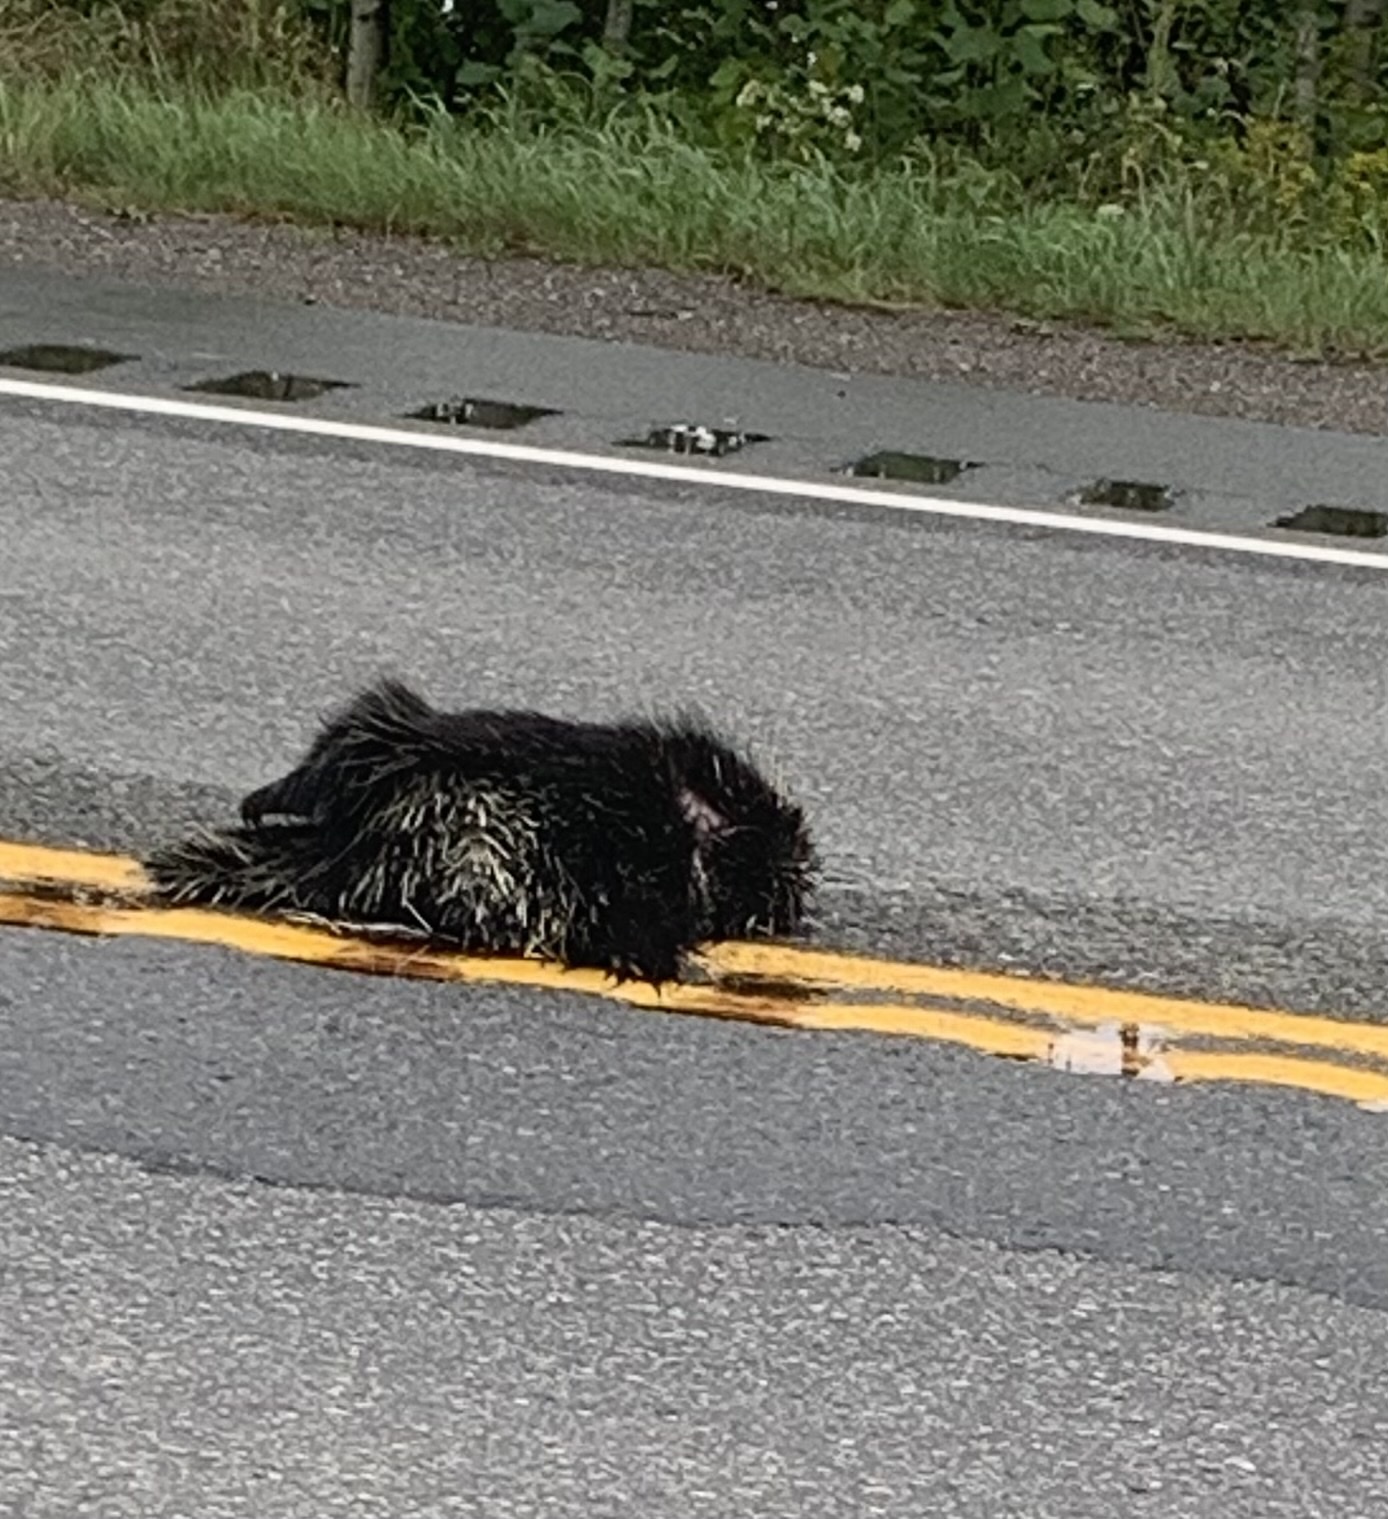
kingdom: Animalia
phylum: Chordata
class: Mammalia
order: Rodentia
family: Erethizontidae
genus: Erethizon
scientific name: Erethizon dorsatus
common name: North american porcupine
